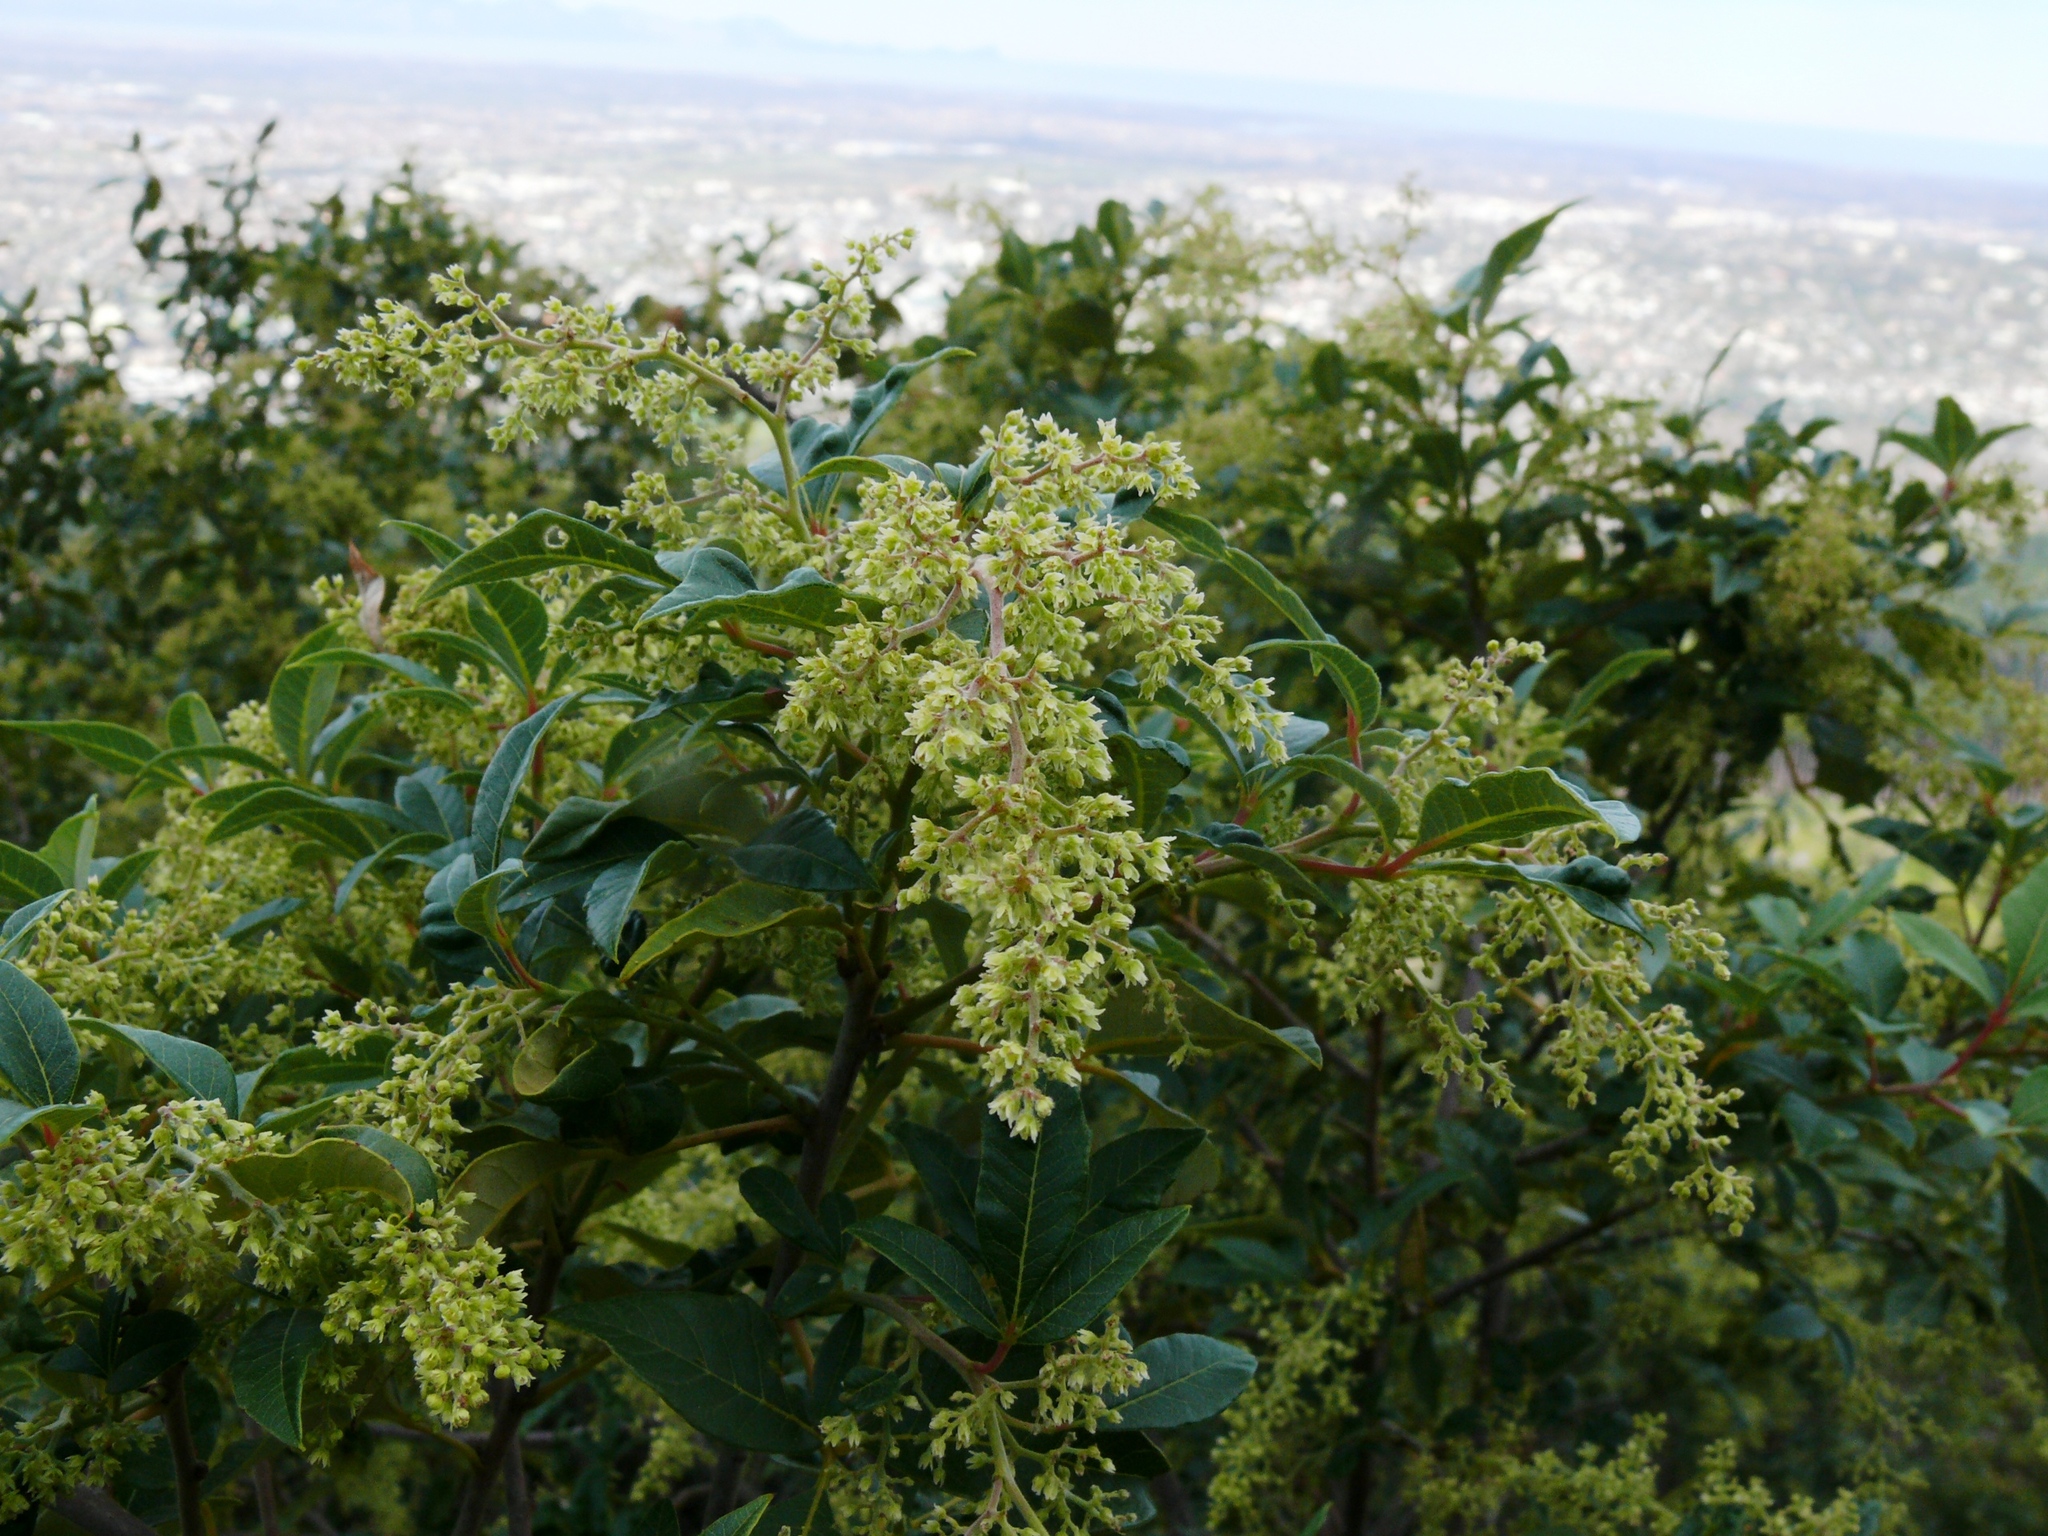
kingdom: Plantae
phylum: Tracheophyta
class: Magnoliopsida
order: Sapindales
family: Anacardiaceae
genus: Searsia
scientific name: Searsia tomentosa
